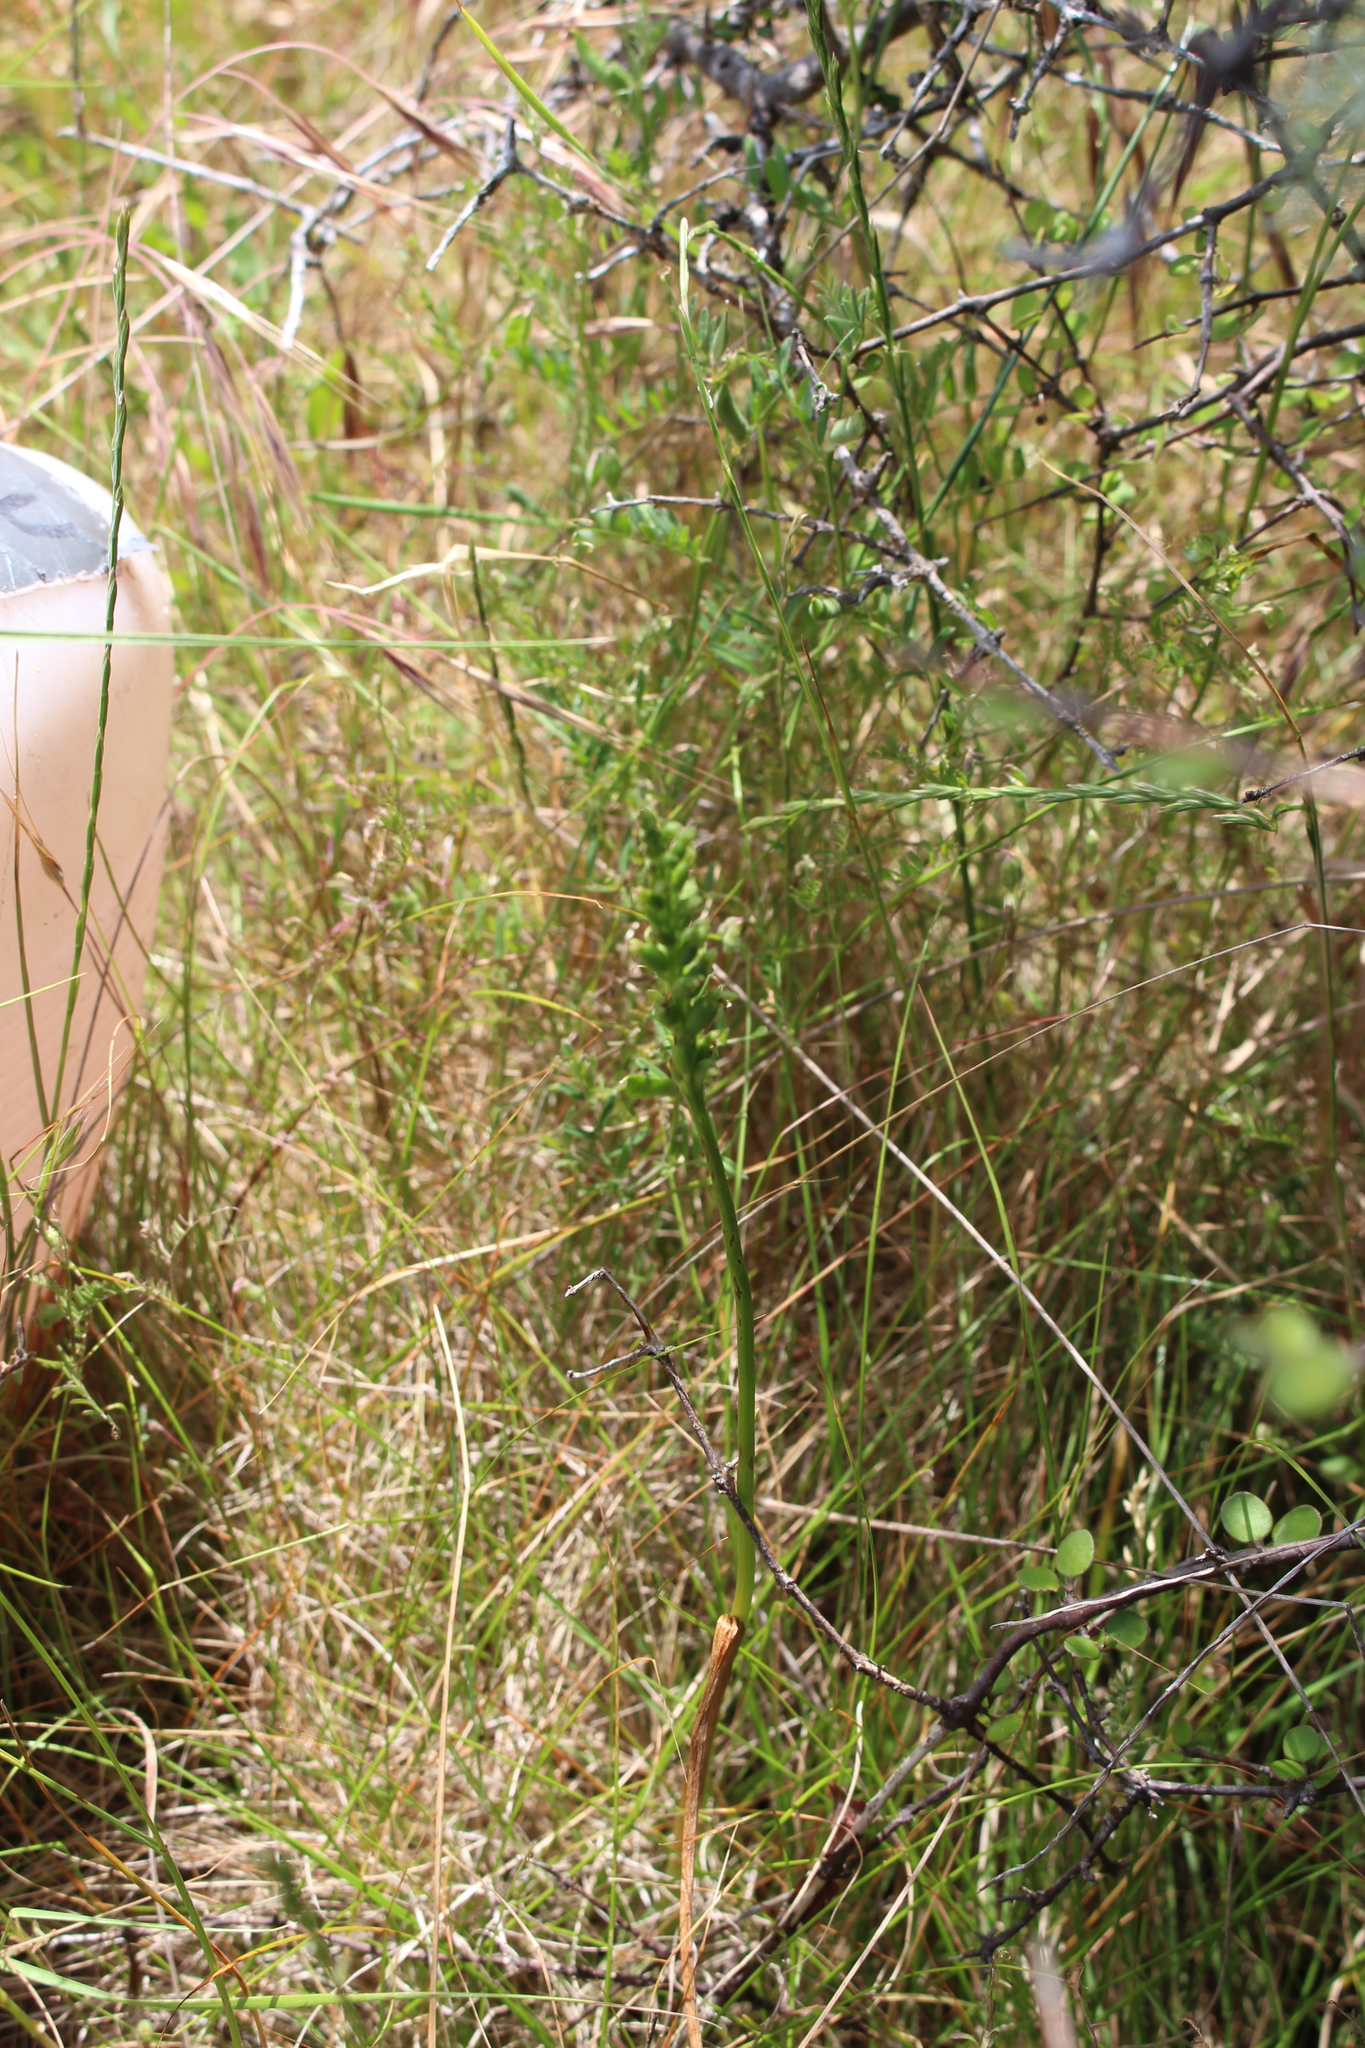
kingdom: Plantae
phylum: Tracheophyta
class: Liliopsida
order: Asparagales
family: Orchidaceae
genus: Microtis
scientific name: Microtis unifolia
